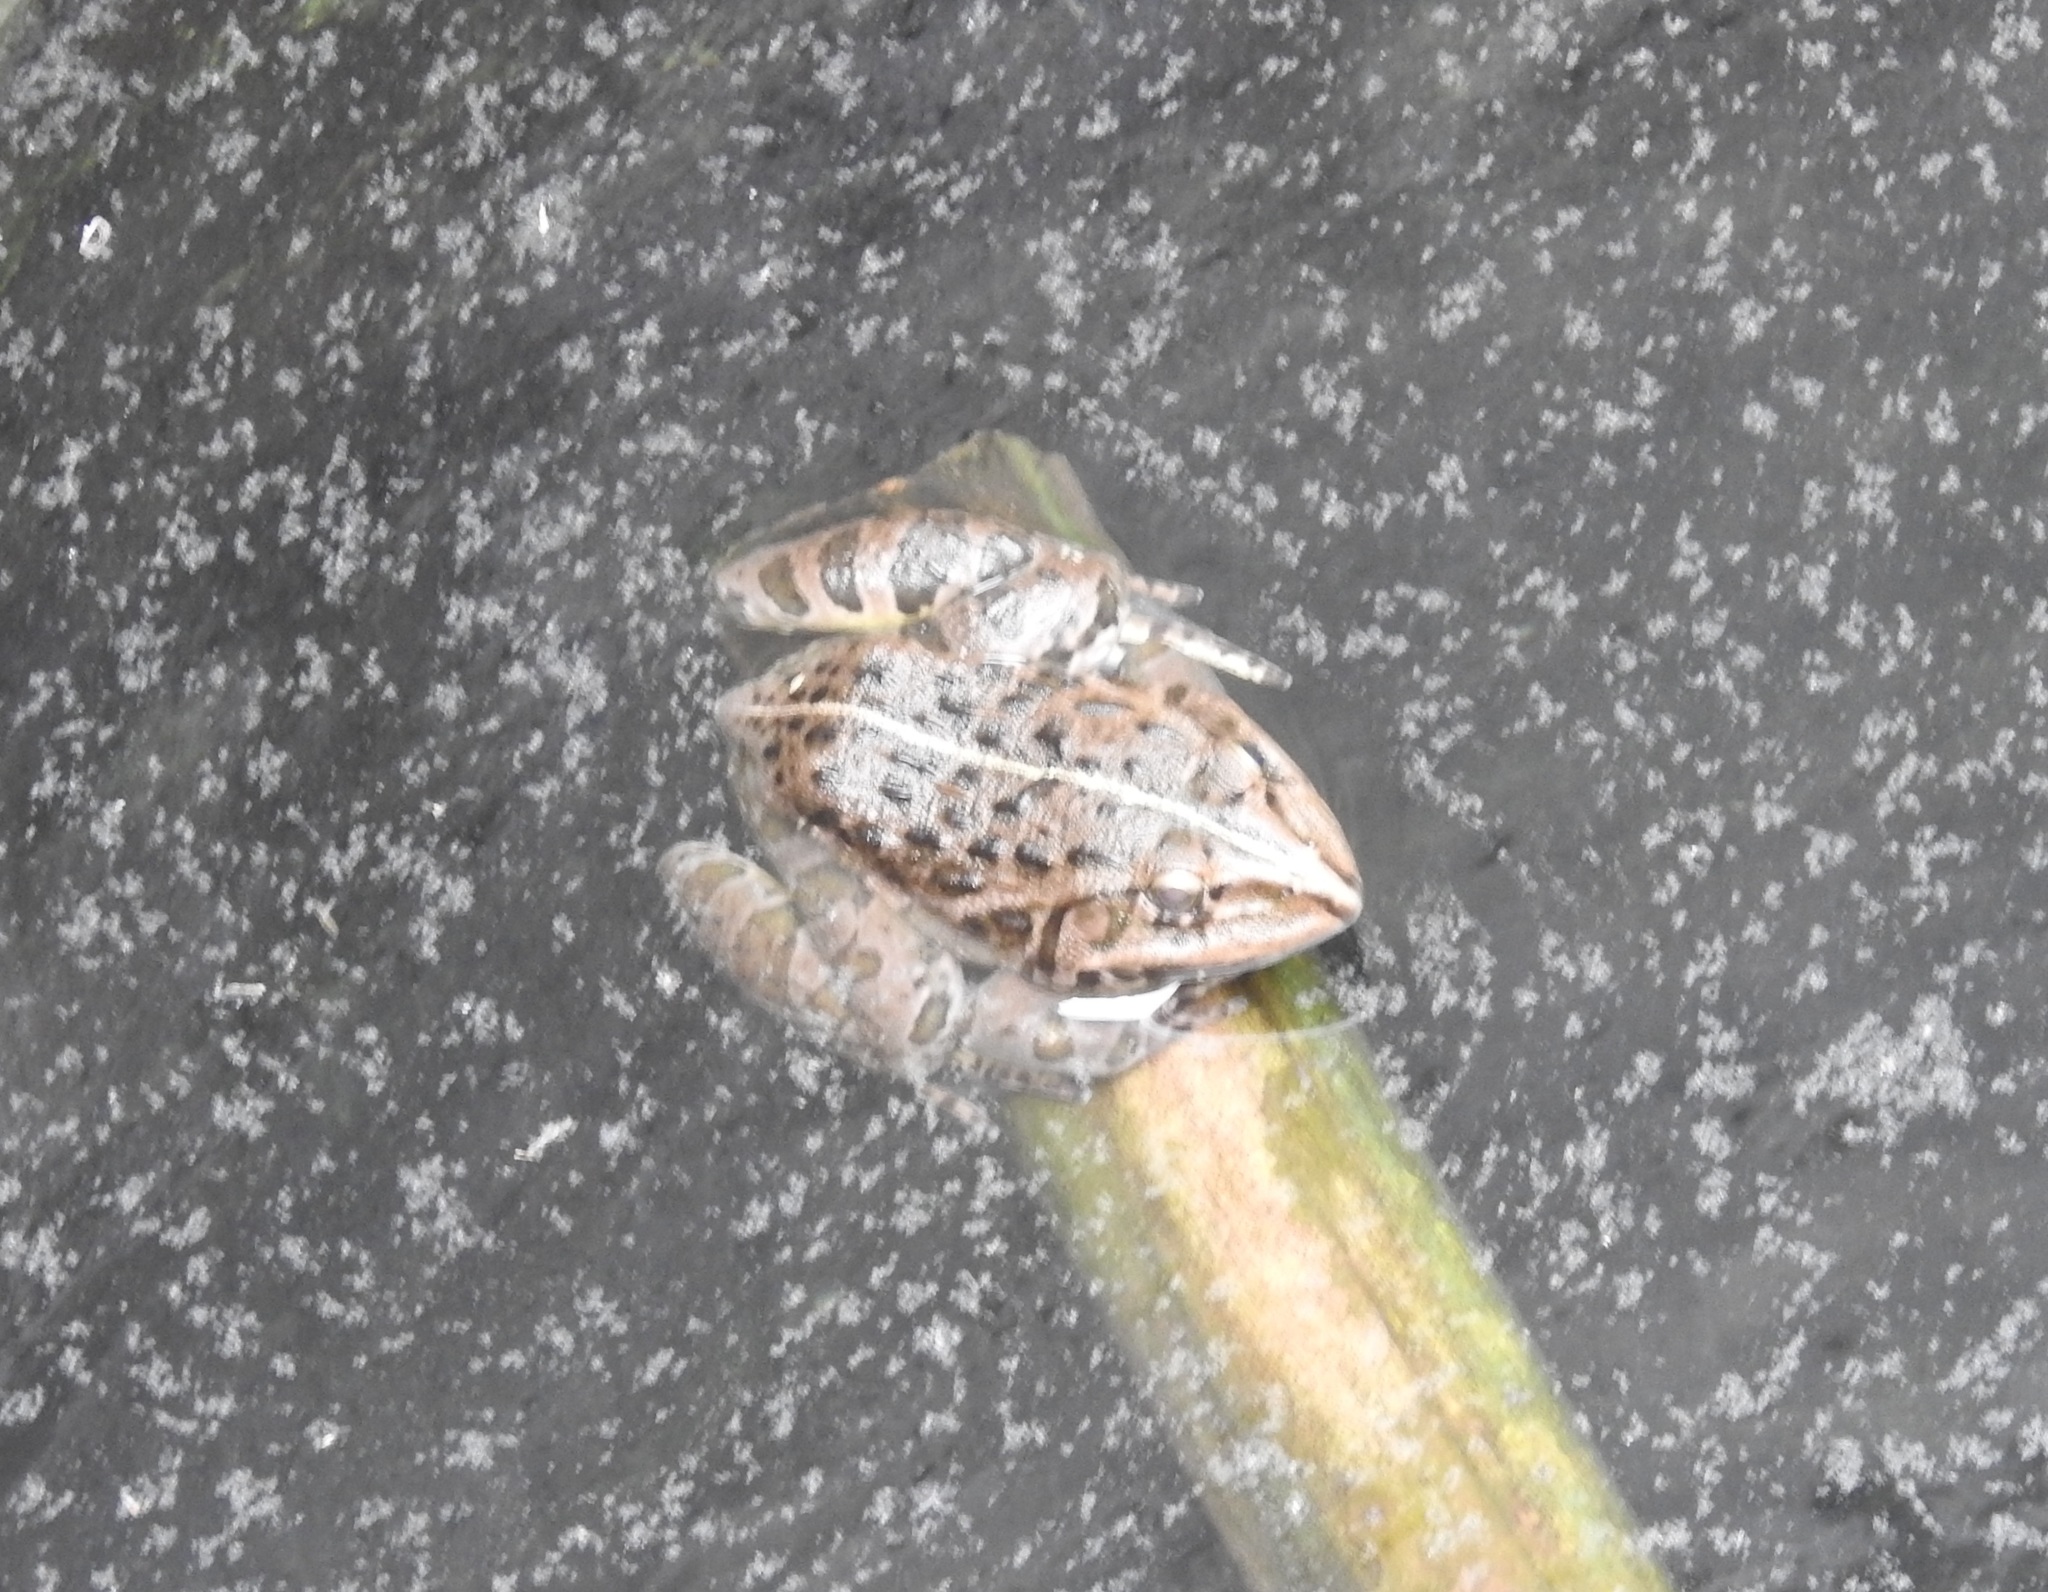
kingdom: Animalia
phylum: Chordata
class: Amphibia
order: Anura
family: Dicroglossidae
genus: Hoplobatrachus
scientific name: Hoplobatrachus tigerinus
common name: Indian bullfrog
